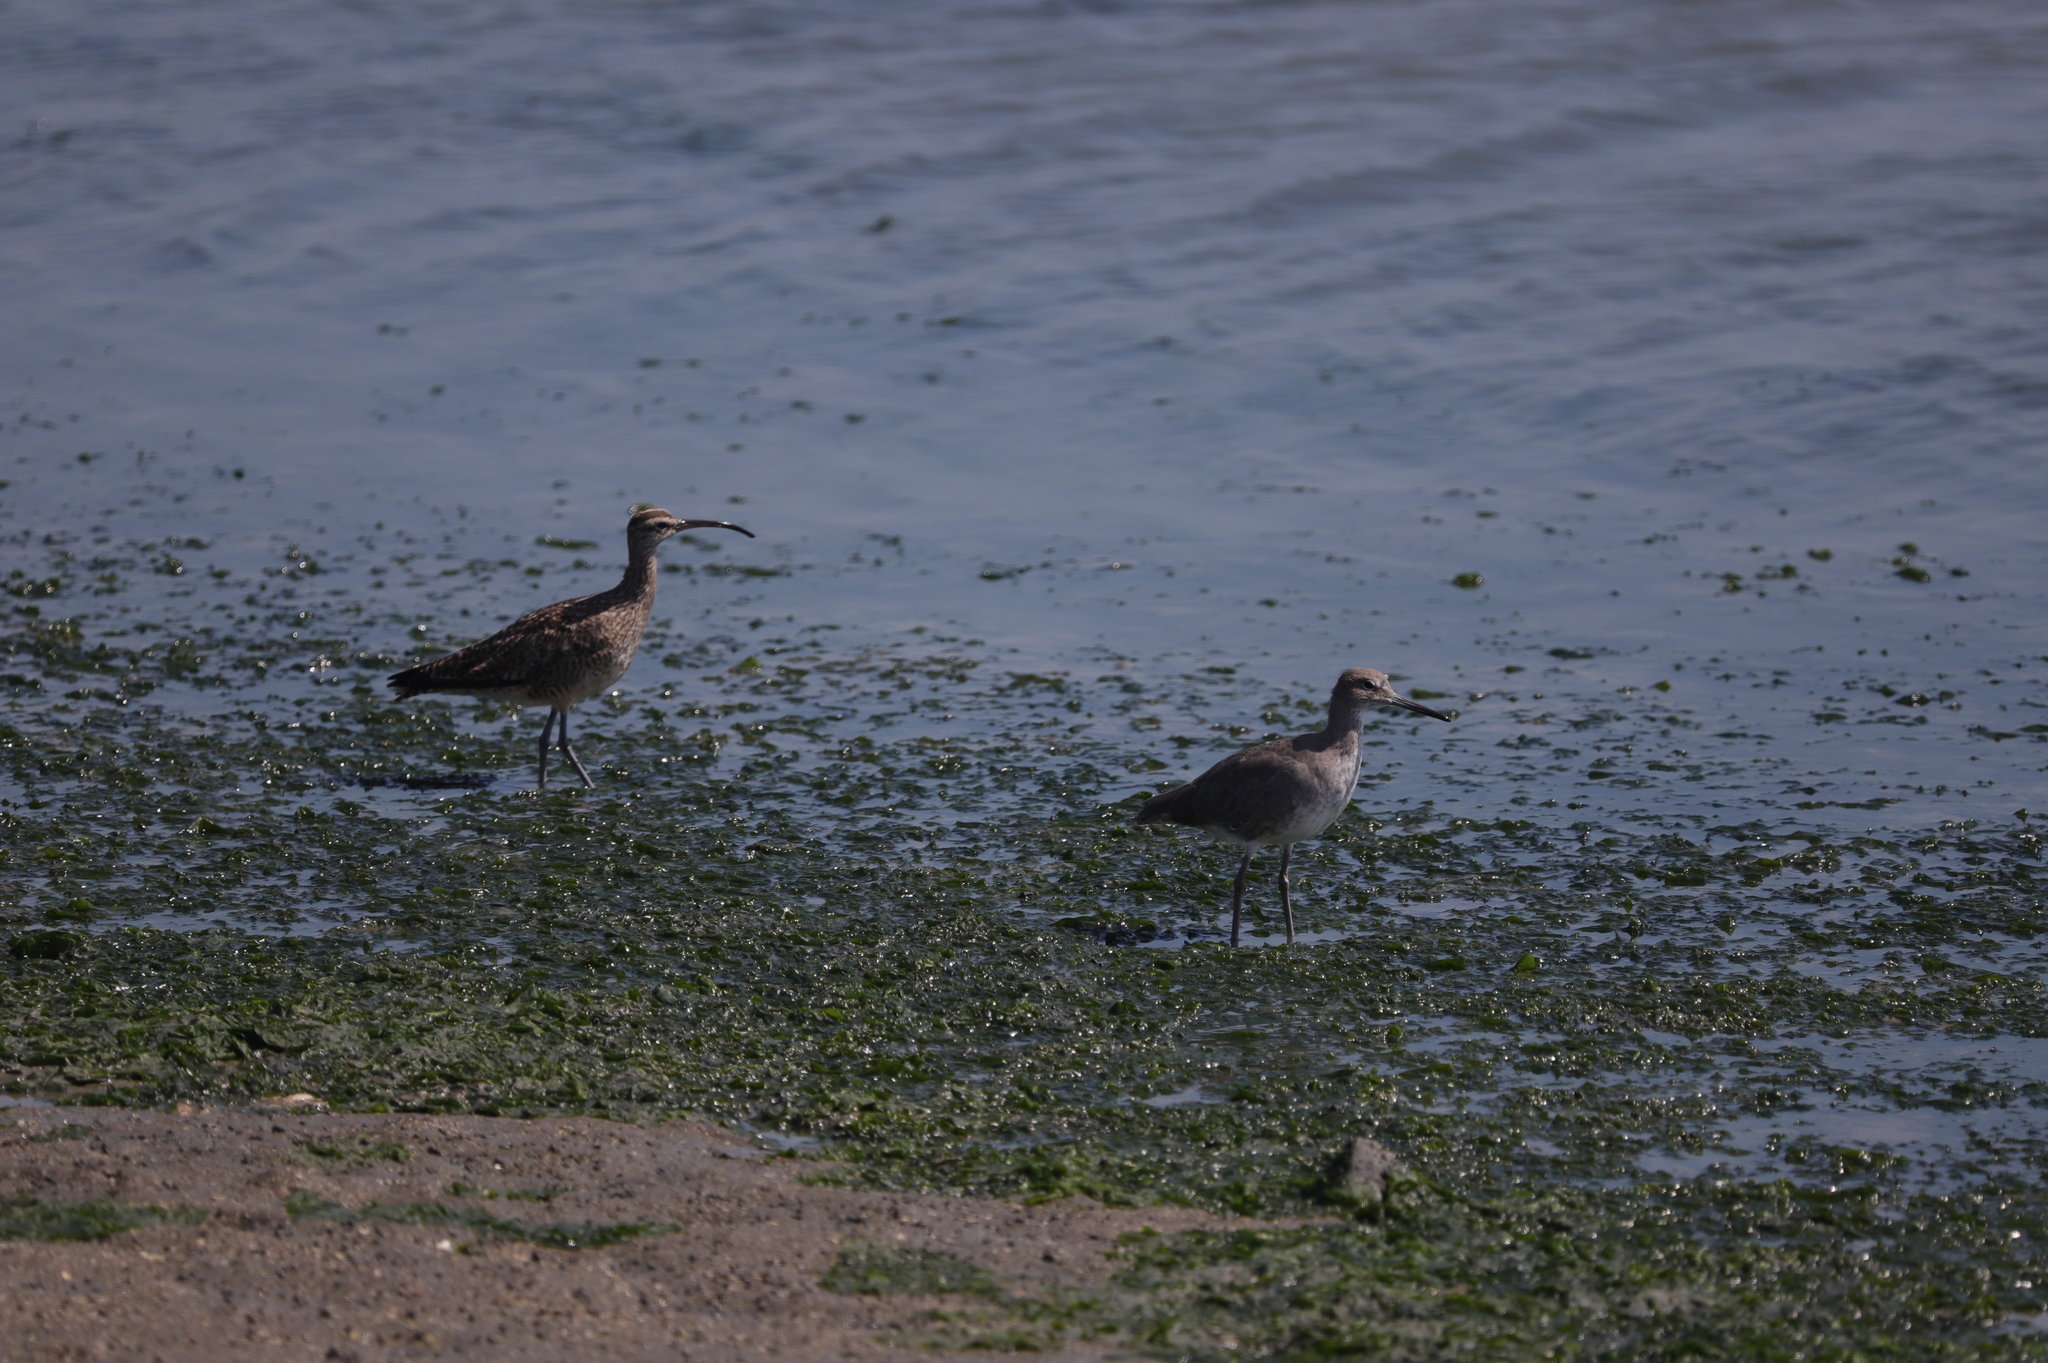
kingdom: Animalia
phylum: Chordata
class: Aves
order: Charadriiformes
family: Scolopacidae
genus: Tringa
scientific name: Tringa semipalmata
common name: Willet
